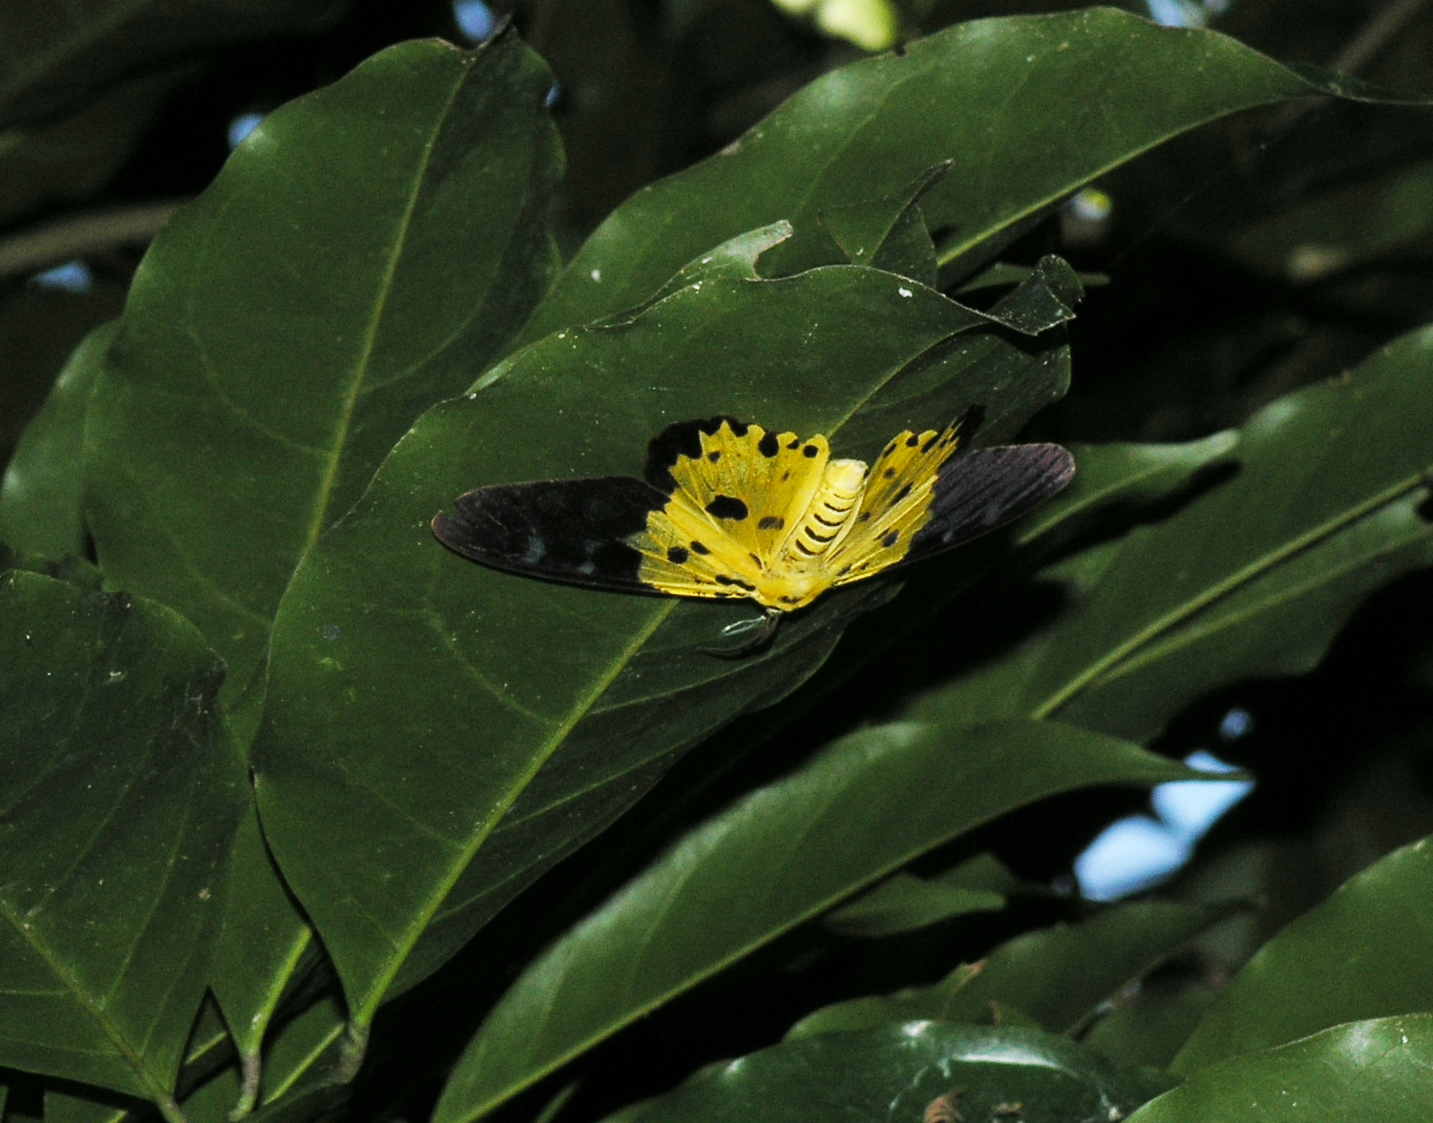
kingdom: Animalia
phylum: Arthropoda
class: Insecta
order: Lepidoptera
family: Geometridae
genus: Dysphania
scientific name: Dysphania militaris
